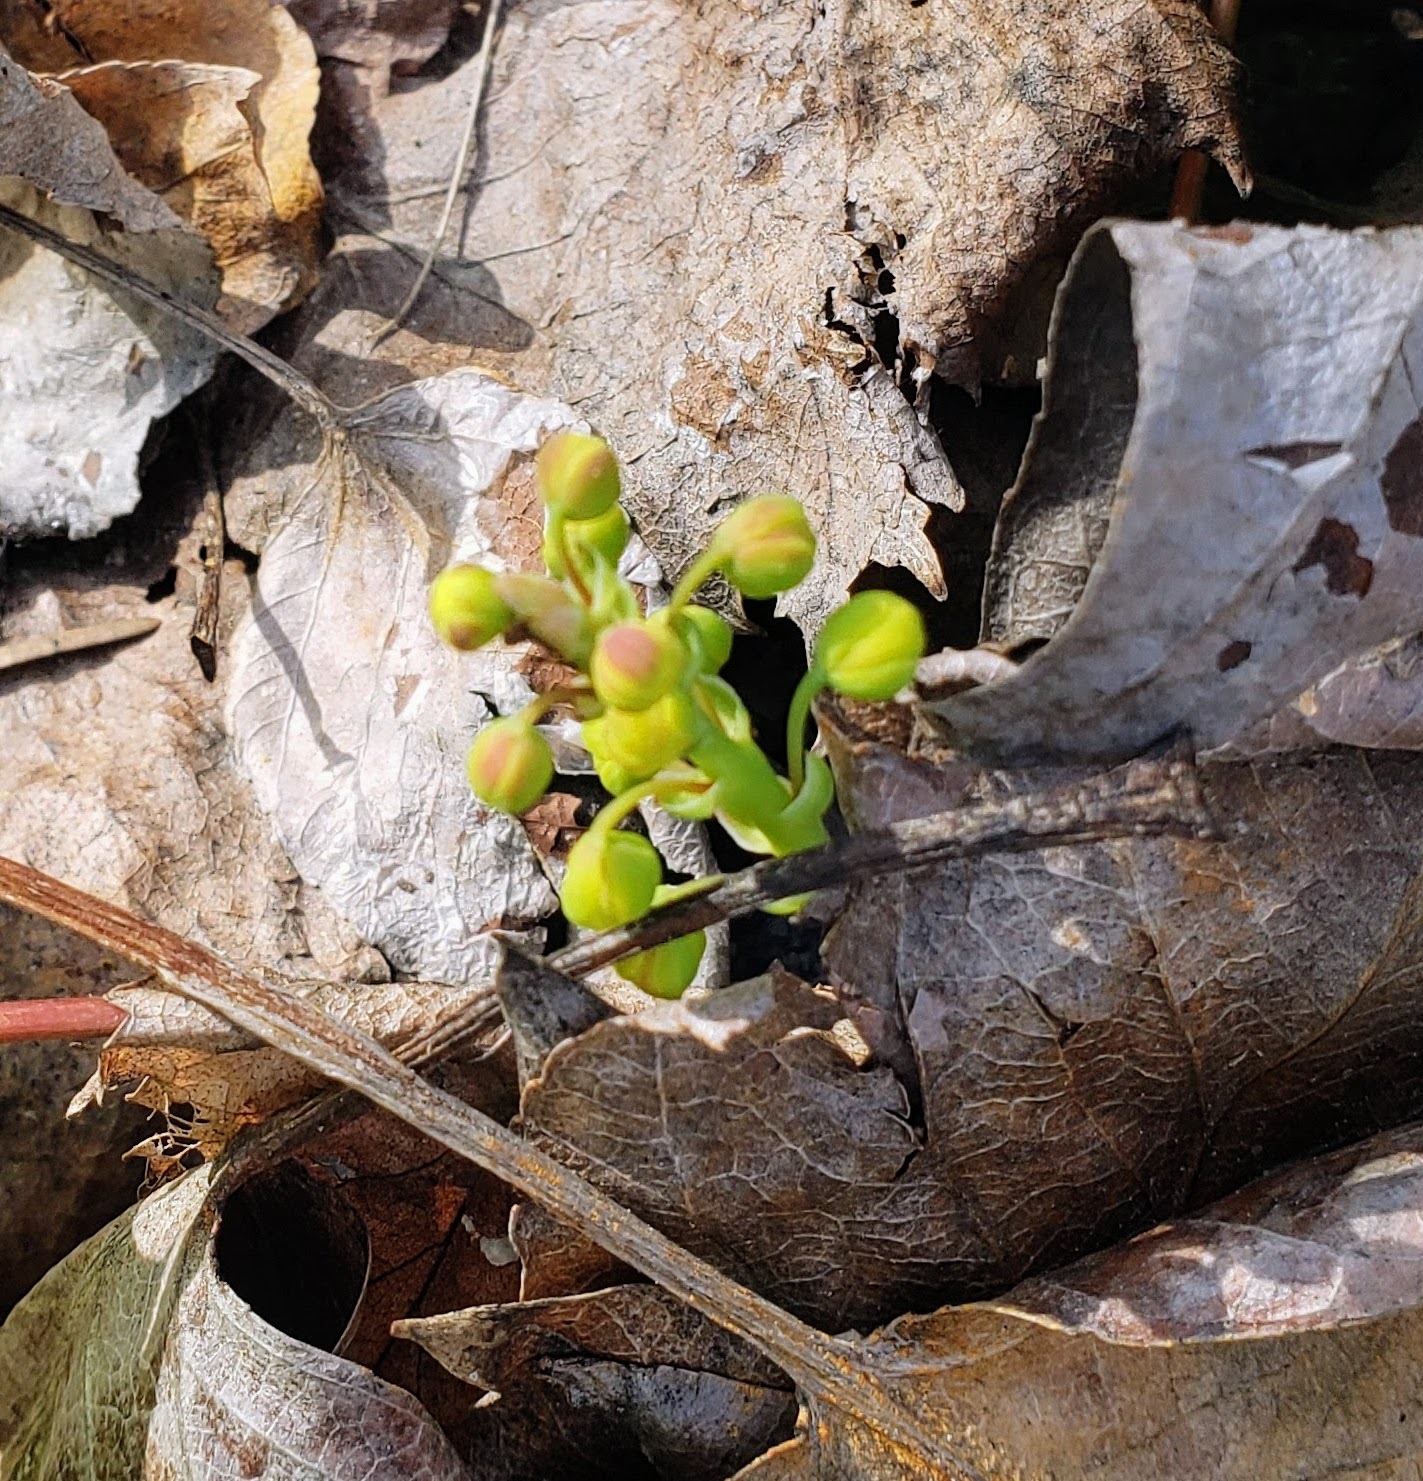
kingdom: Plantae
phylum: Tracheophyta
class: Magnoliopsida
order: Ranunculales
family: Berberidaceae
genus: Mahonia
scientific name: Mahonia aquifolium
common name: Oregon-grape
